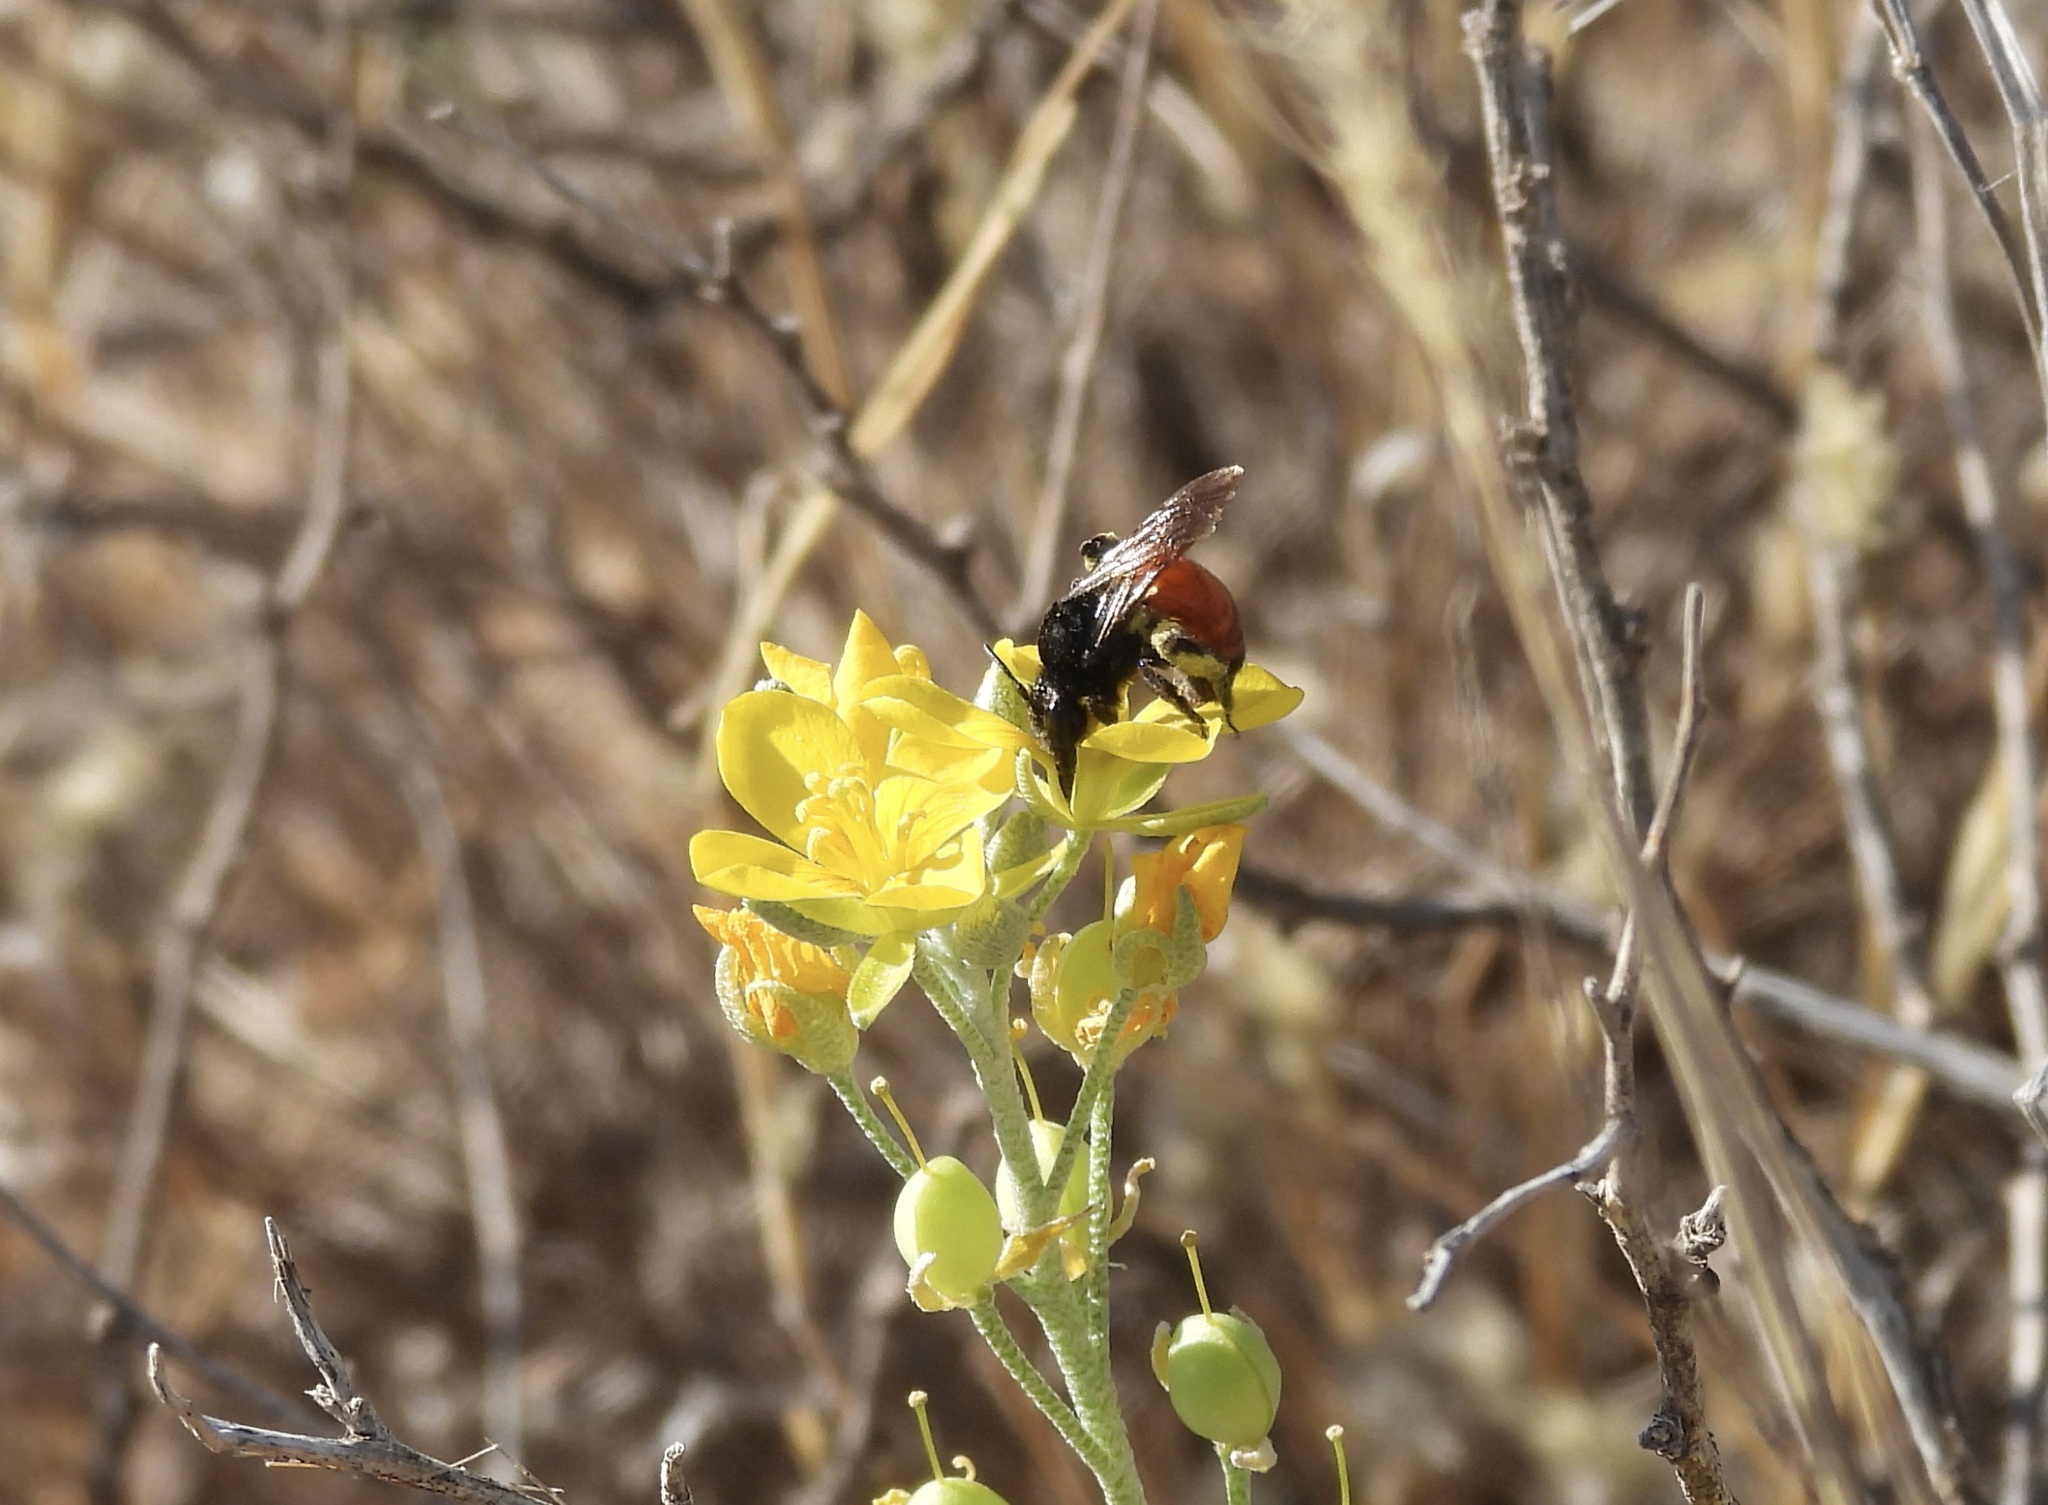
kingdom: Animalia
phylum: Arthropoda
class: Insecta
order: Hymenoptera
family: Andrenidae
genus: Andrena
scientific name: Andrena prima
